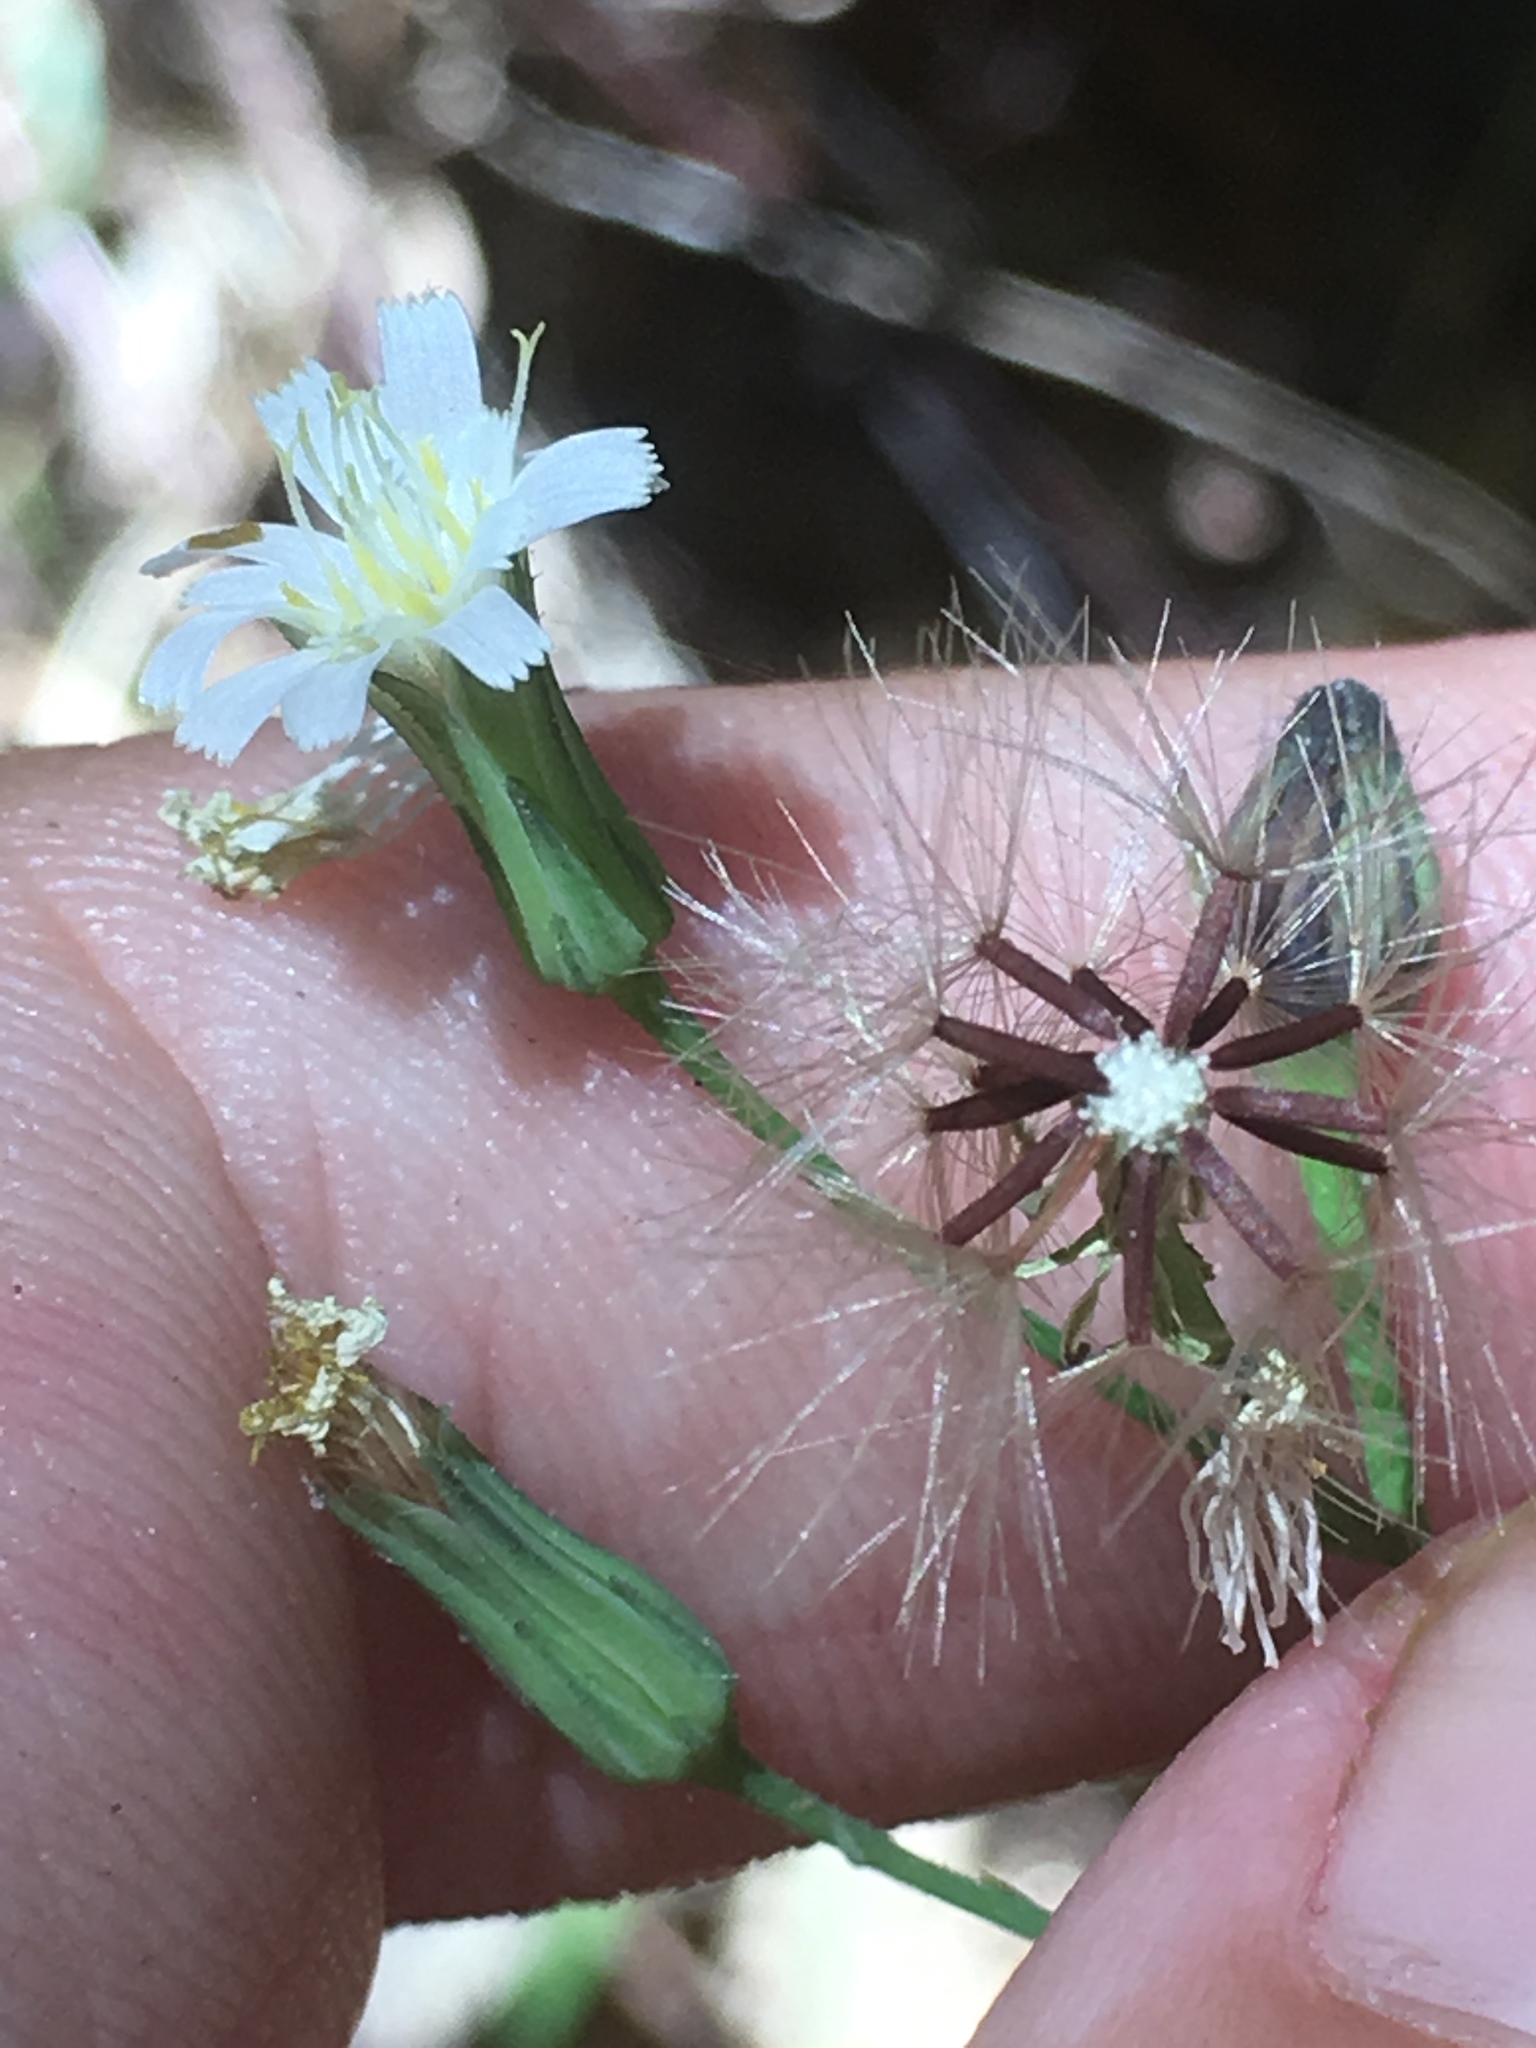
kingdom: Plantae
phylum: Tracheophyta
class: Magnoliopsida
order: Asterales
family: Asteraceae
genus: Hieracium
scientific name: Hieracium albiflorum
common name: White hawkweed
